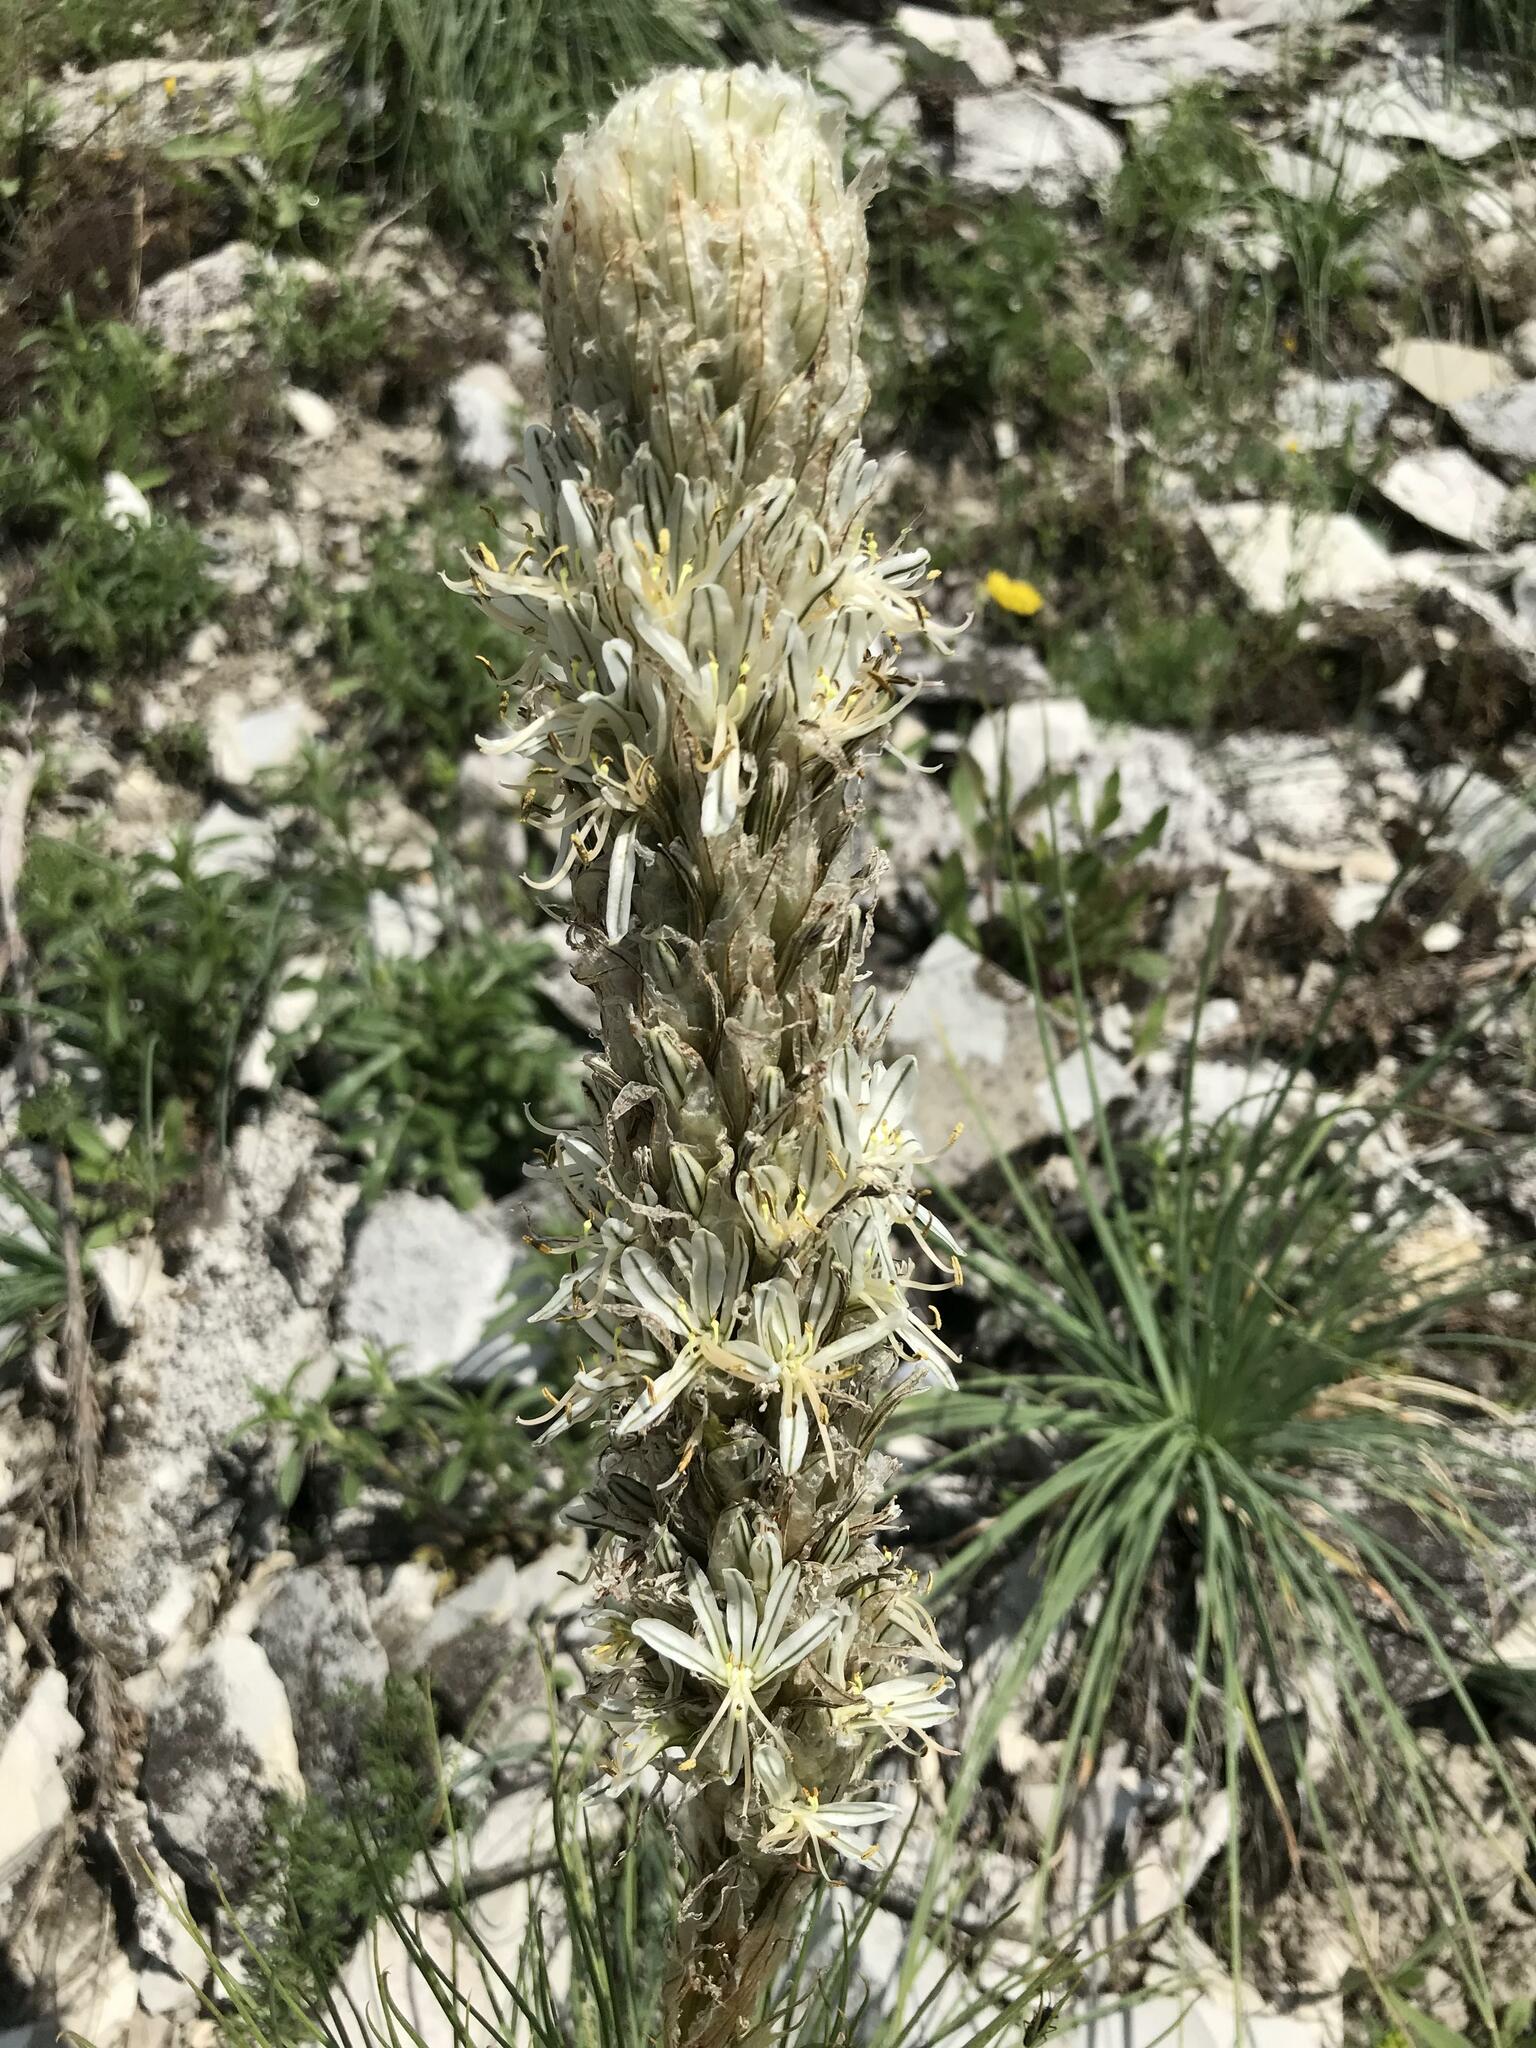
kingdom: Plantae
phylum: Tracheophyta
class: Liliopsida
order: Asparagales
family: Asphodelaceae
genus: Asphodeline
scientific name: Asphodeline taurica
